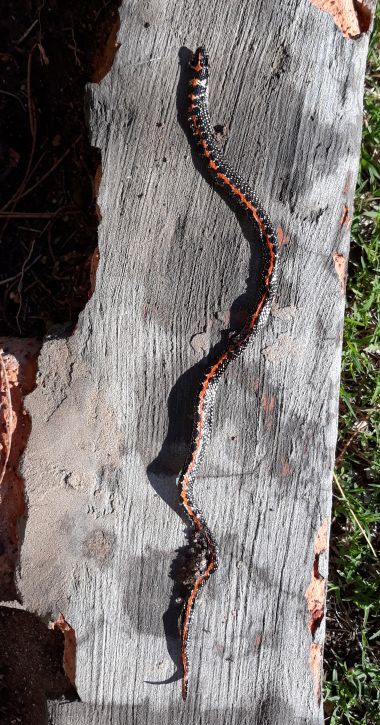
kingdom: Animalia
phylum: Chordata
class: Squamata
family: Atractaspididae
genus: Homoroselaps
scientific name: Homoroselaps lacteus
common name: Spotted harlequin snake
